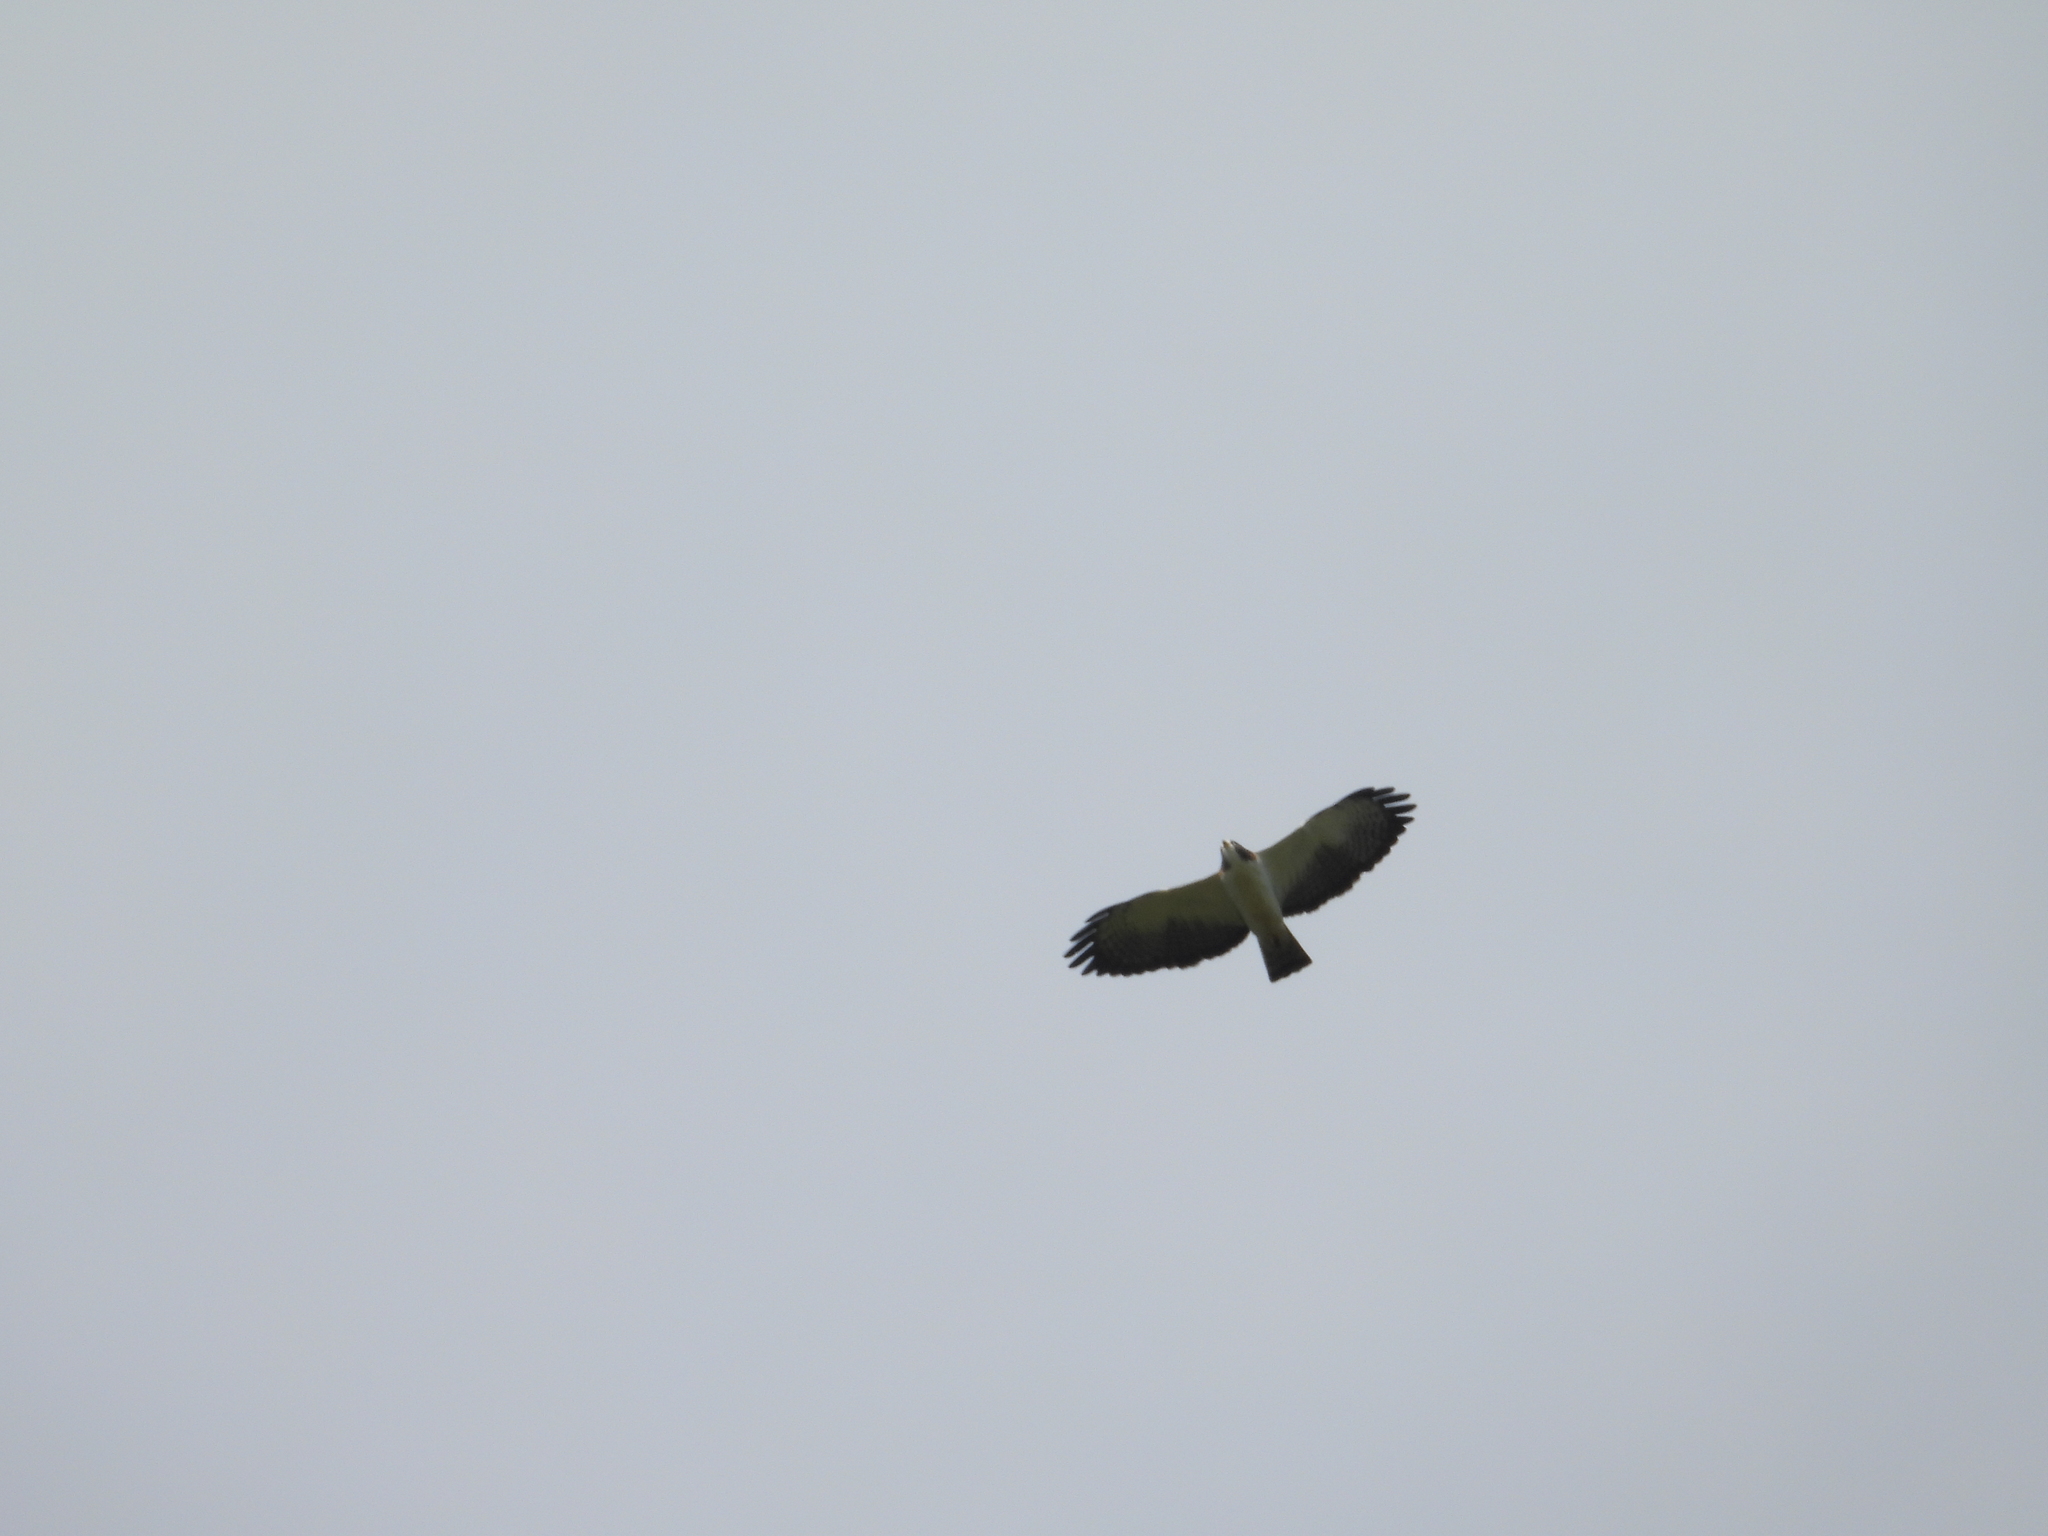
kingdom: Animalia
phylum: Chordata
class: Aves
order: Accipitriformes
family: Accipitridae
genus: Buteo
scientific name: Buteo brachyurus
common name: Short-tailed hawk
